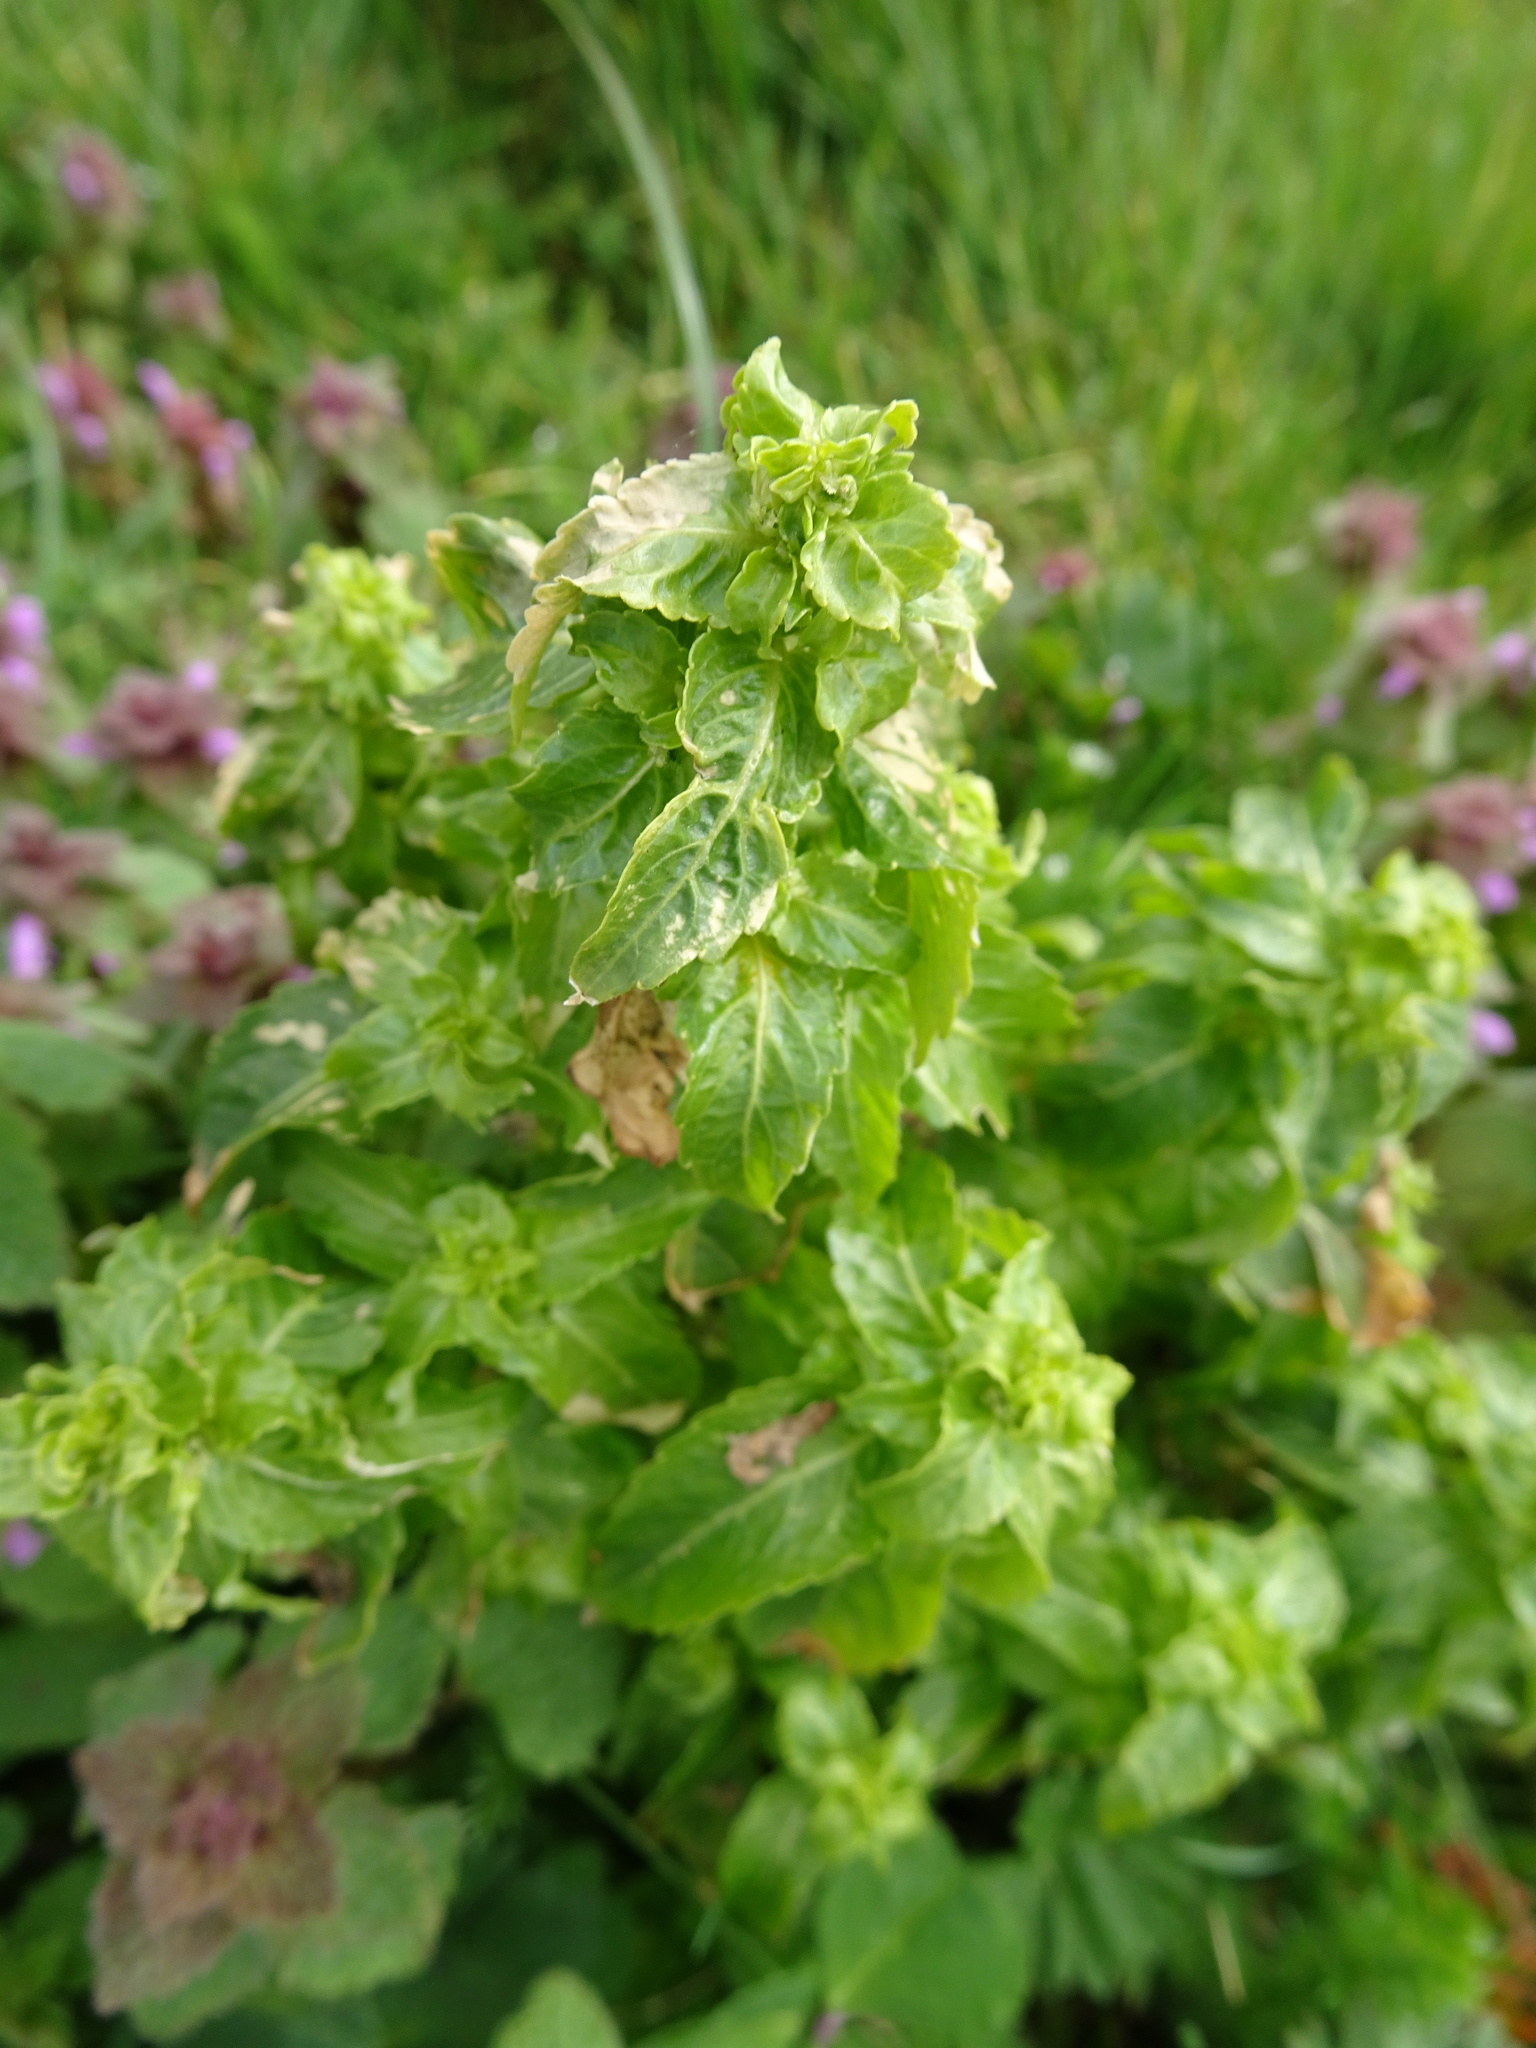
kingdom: Plantae
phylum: Tracheophyta
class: Magnoliopsida
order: Malpighiales
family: Euphorbiaceae
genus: Mercurialis
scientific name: Mercurialis annua
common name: Annual mercury
